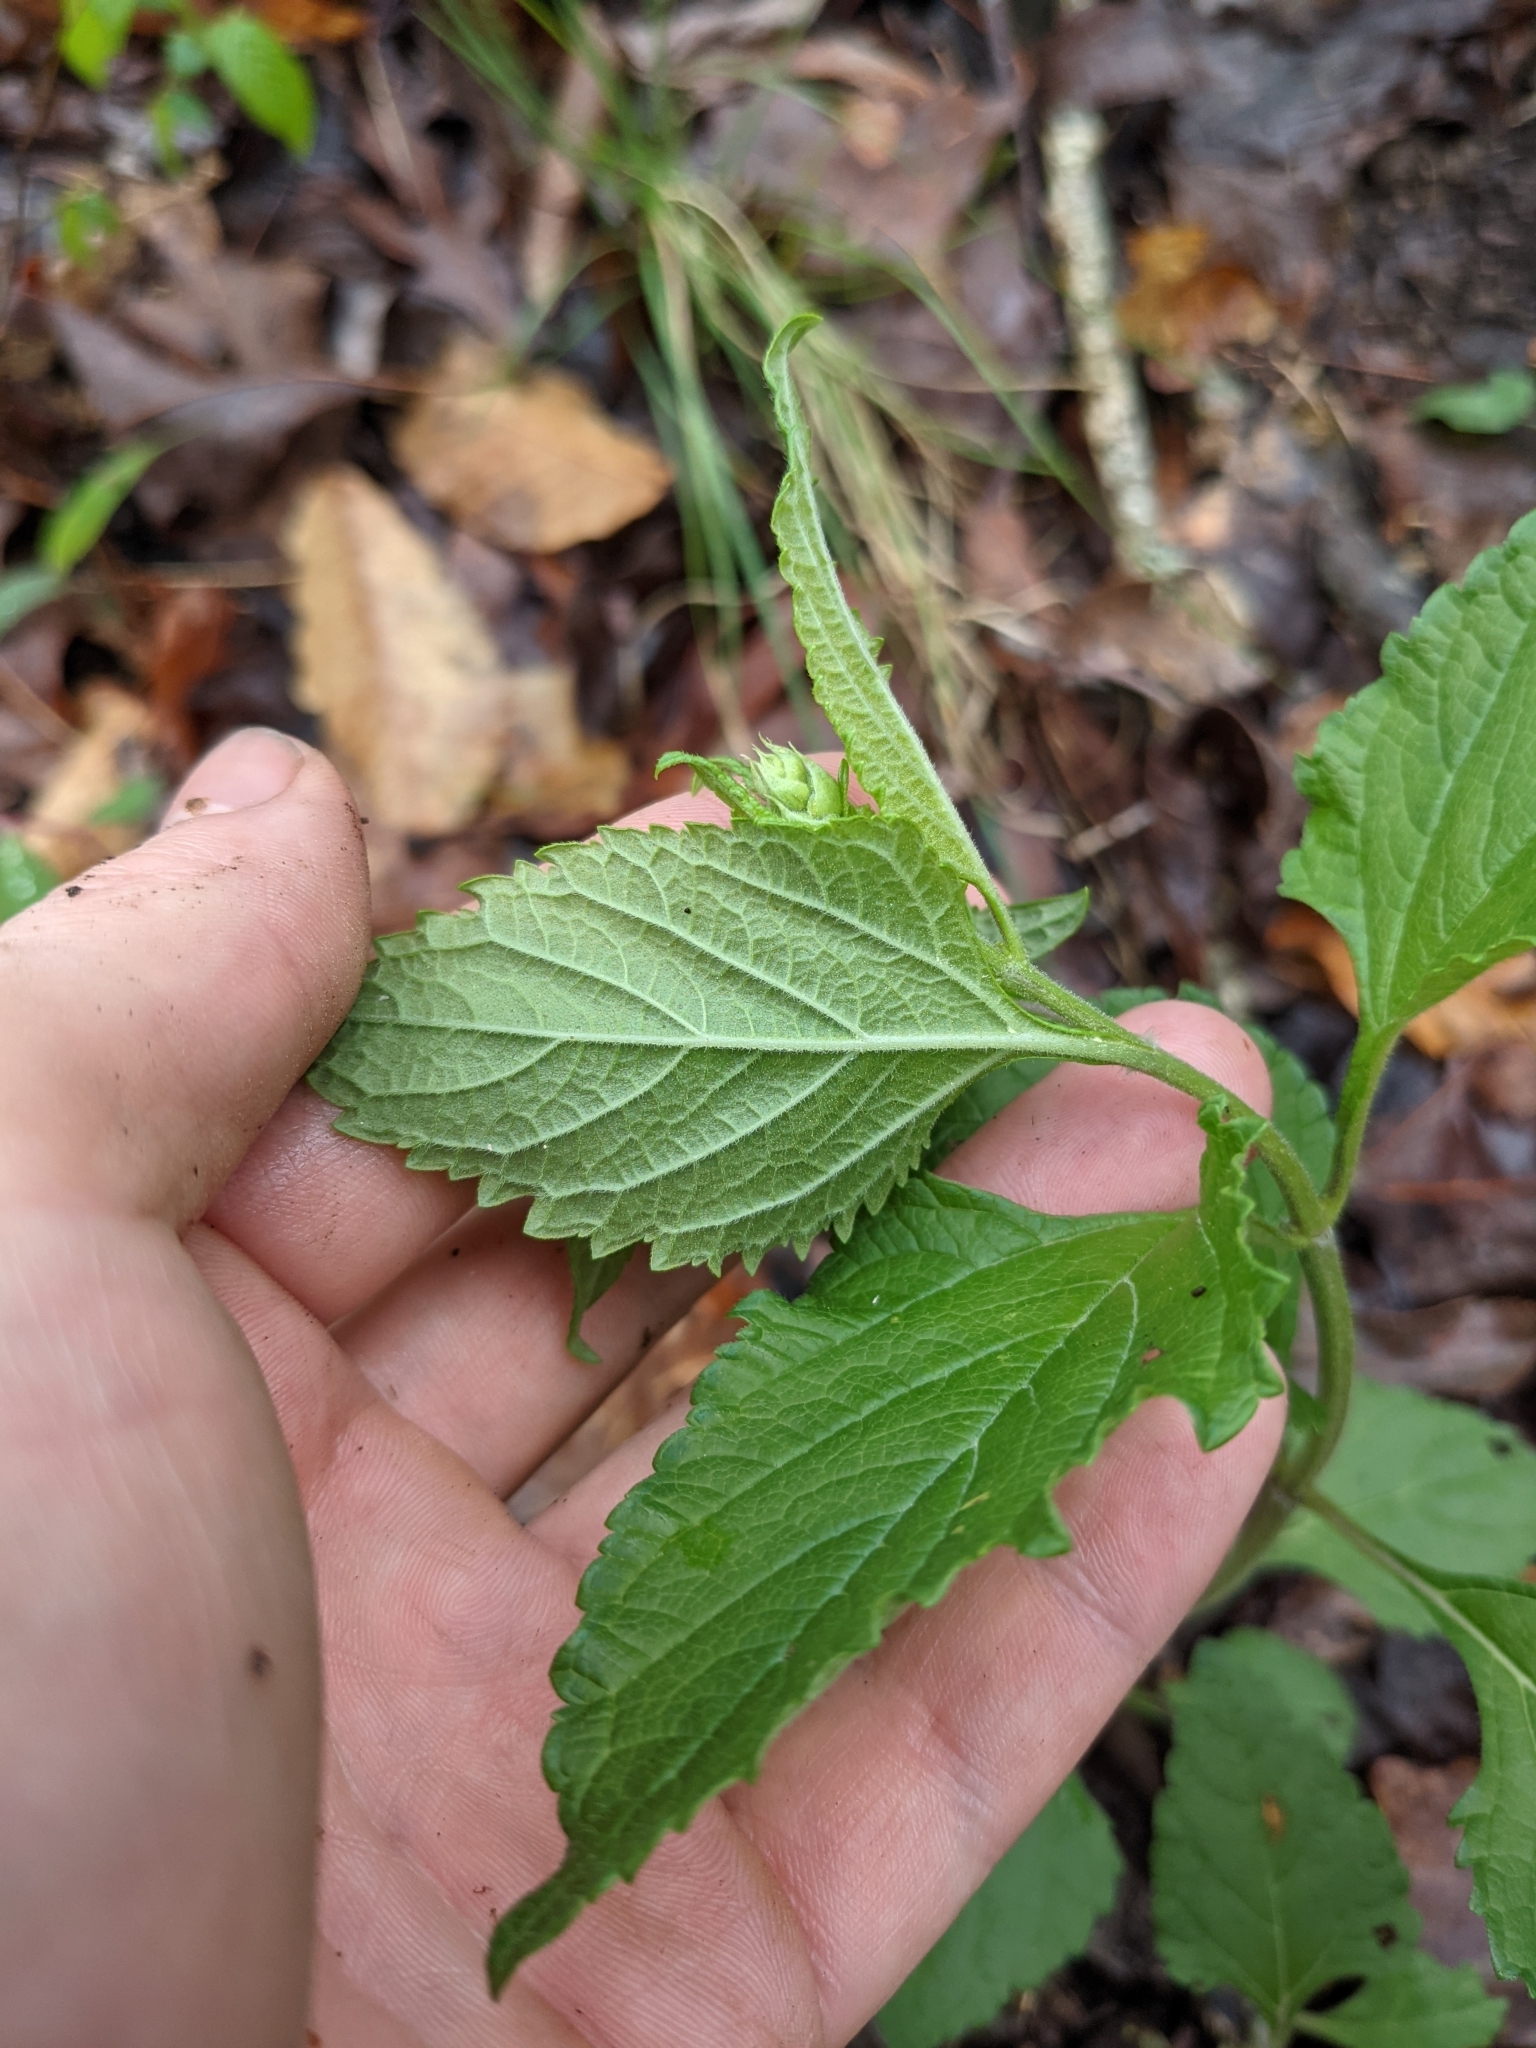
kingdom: Plantae
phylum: Tracheophyta
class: Magnoliopsida
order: Lamiales
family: Lamiaceae
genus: Salvia
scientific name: Salvia urticifolia
